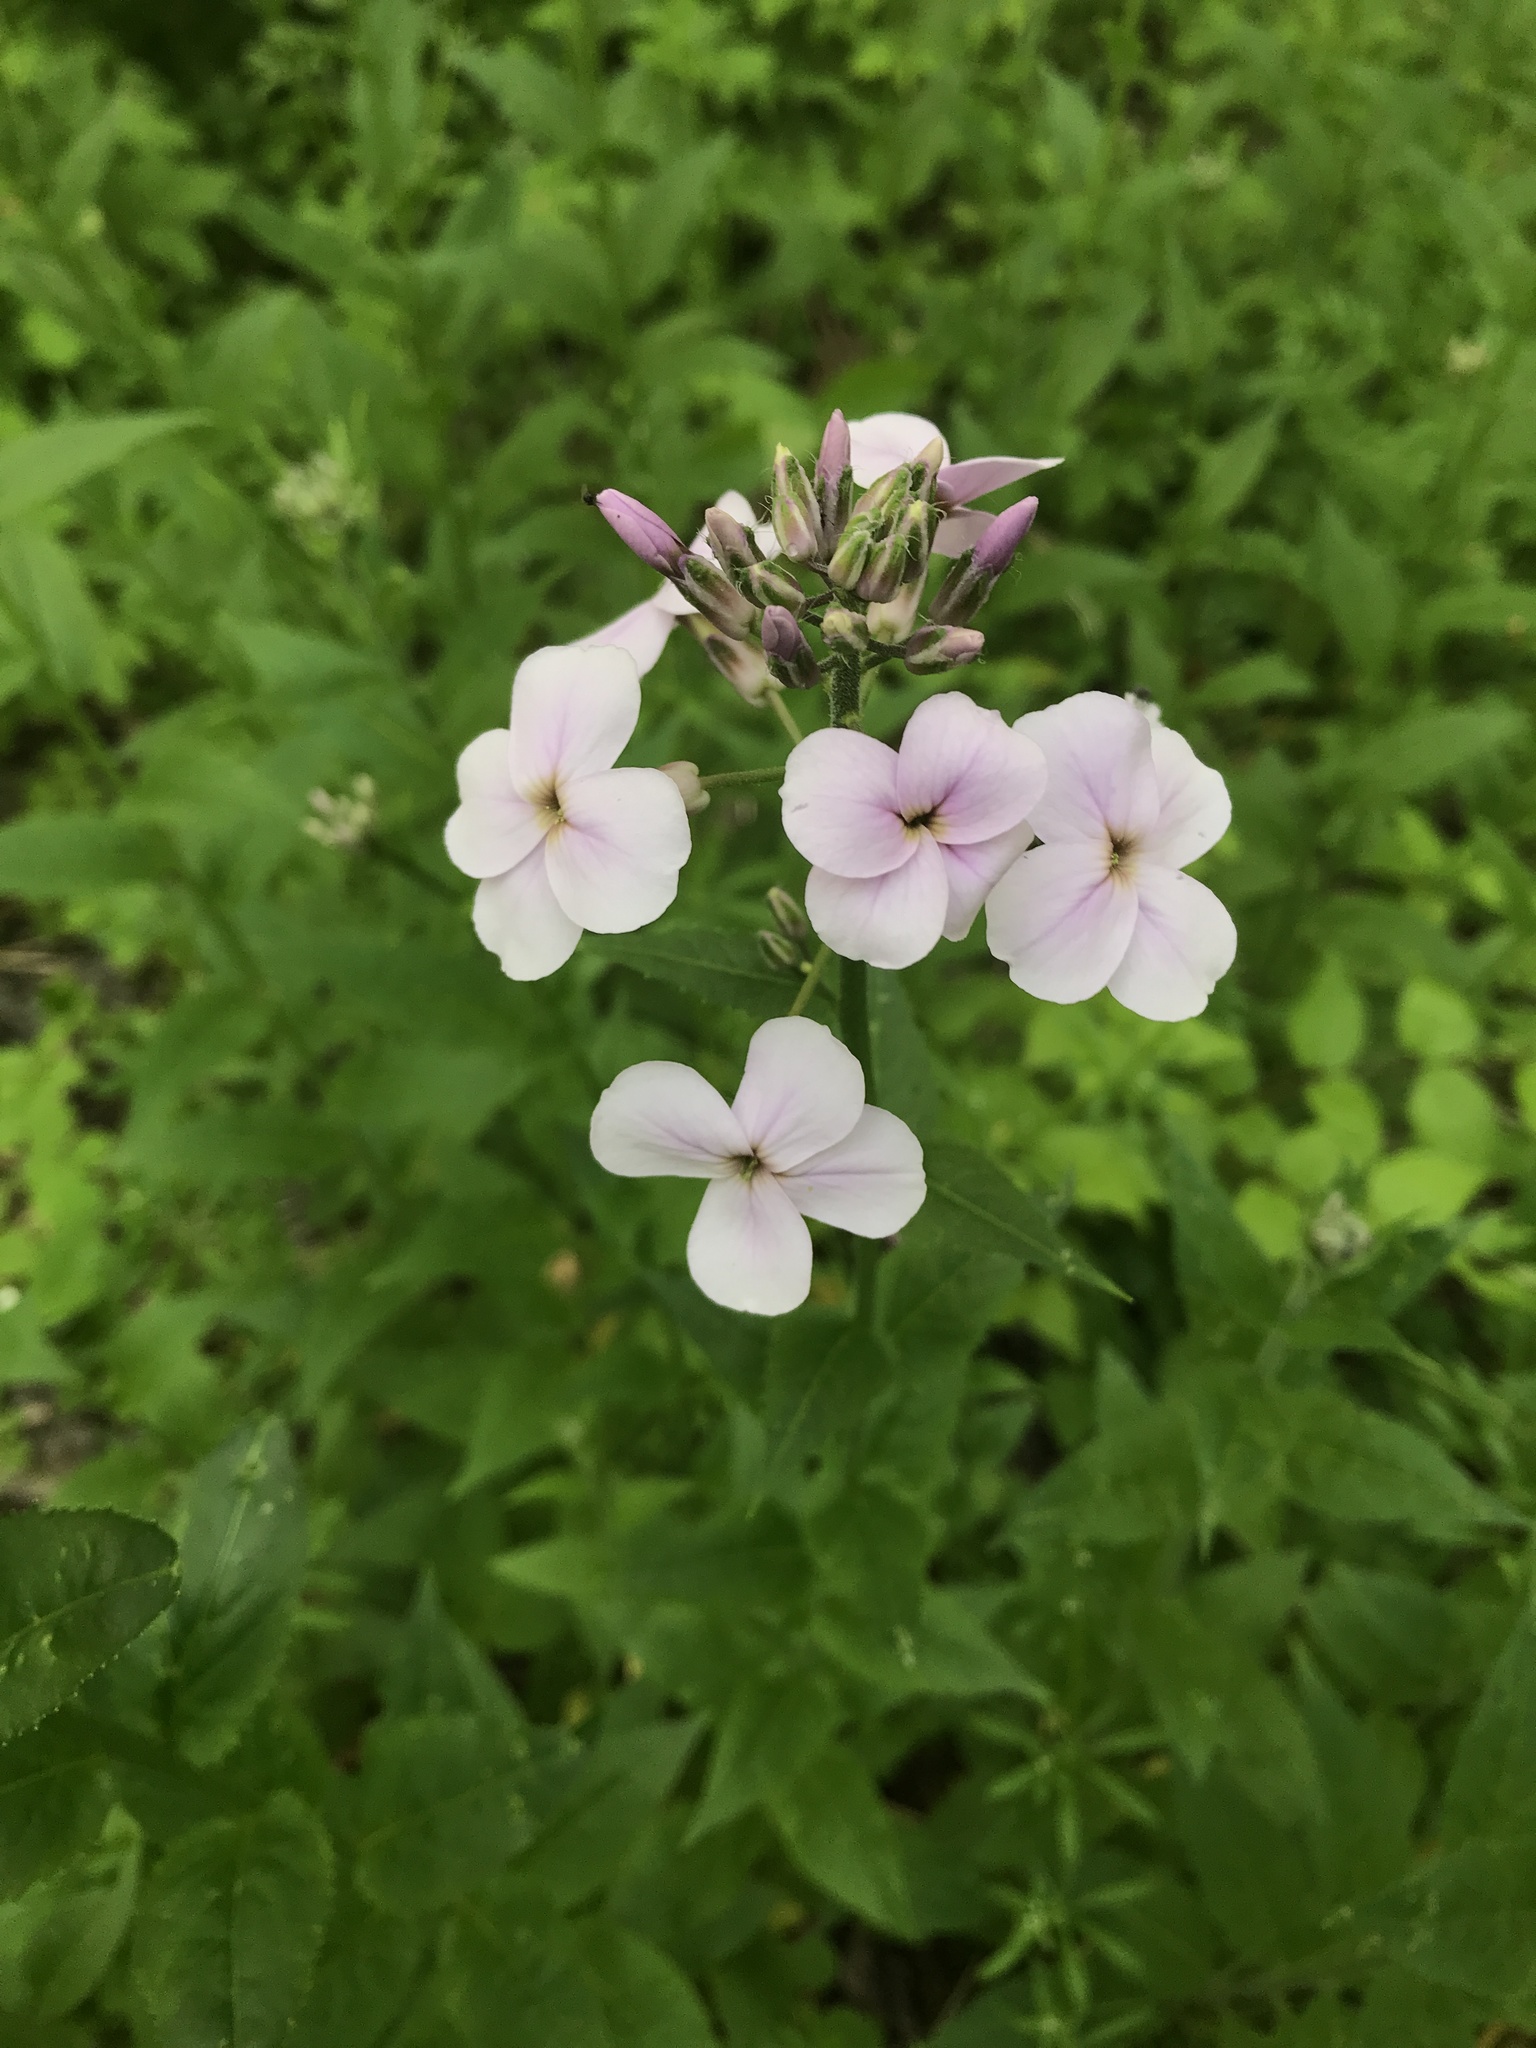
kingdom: Plantae
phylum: Tracheophyta
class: Magnoliopsida
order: Brassicales
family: Brassicaceae
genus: Hesperis
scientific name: Hesperis matronalis
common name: Dame's-violet
